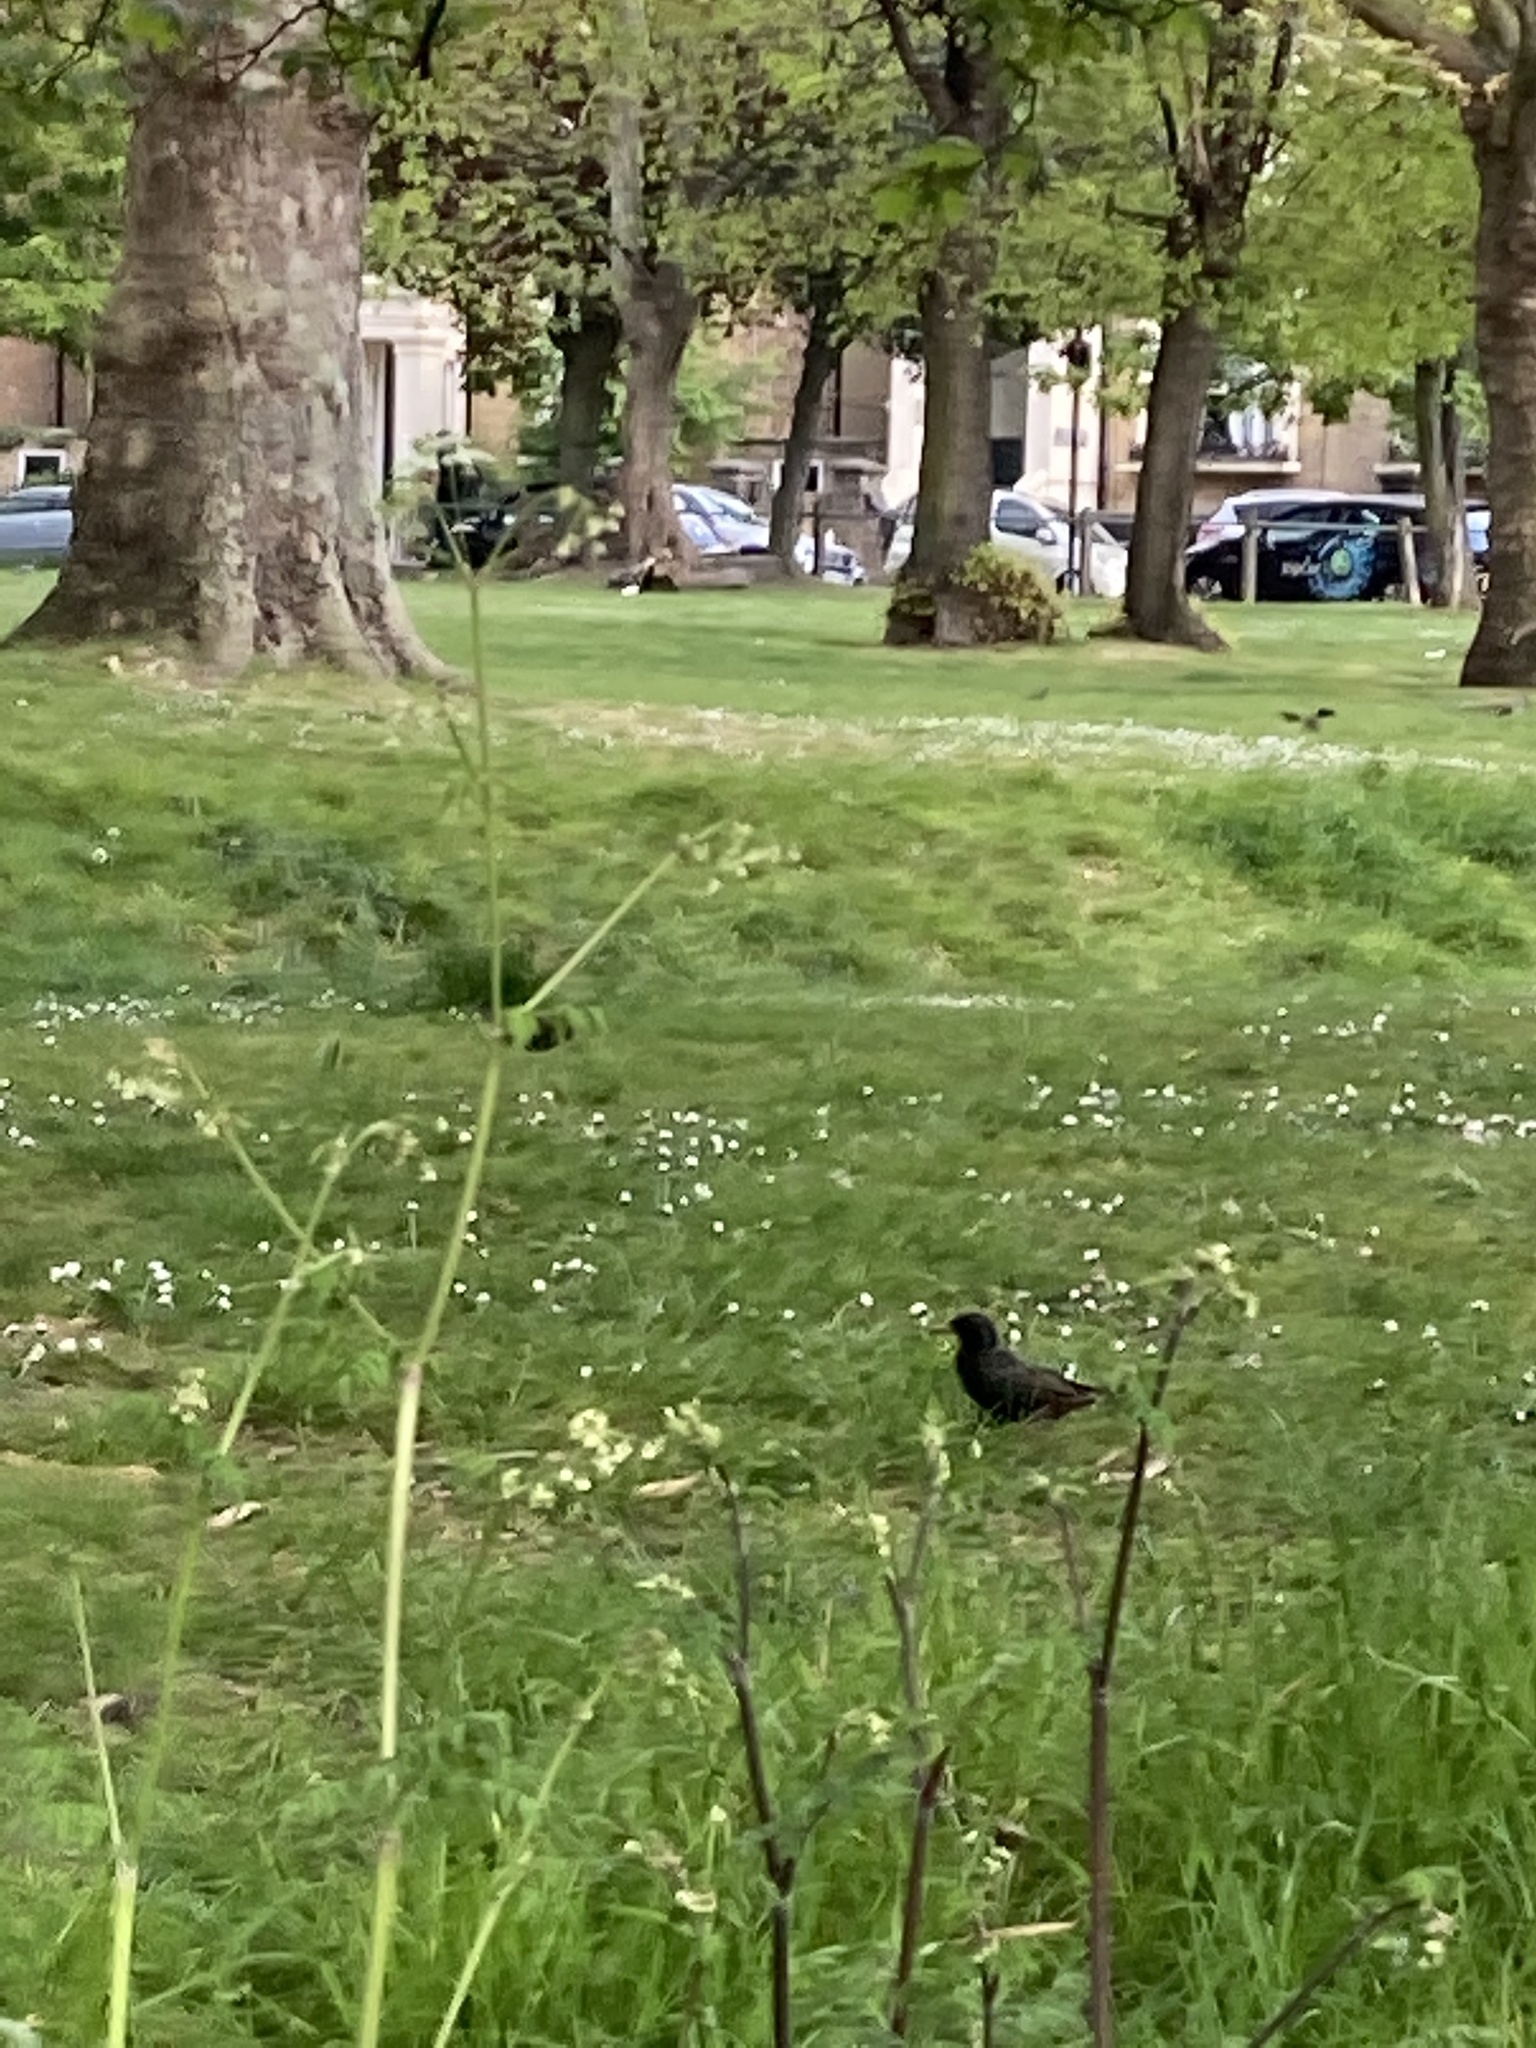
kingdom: Animalia
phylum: Chordata
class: Aves
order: Passeriformes
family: Sturnidae
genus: Sturnus
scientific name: Sturnus vulgaris
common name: Common starling
